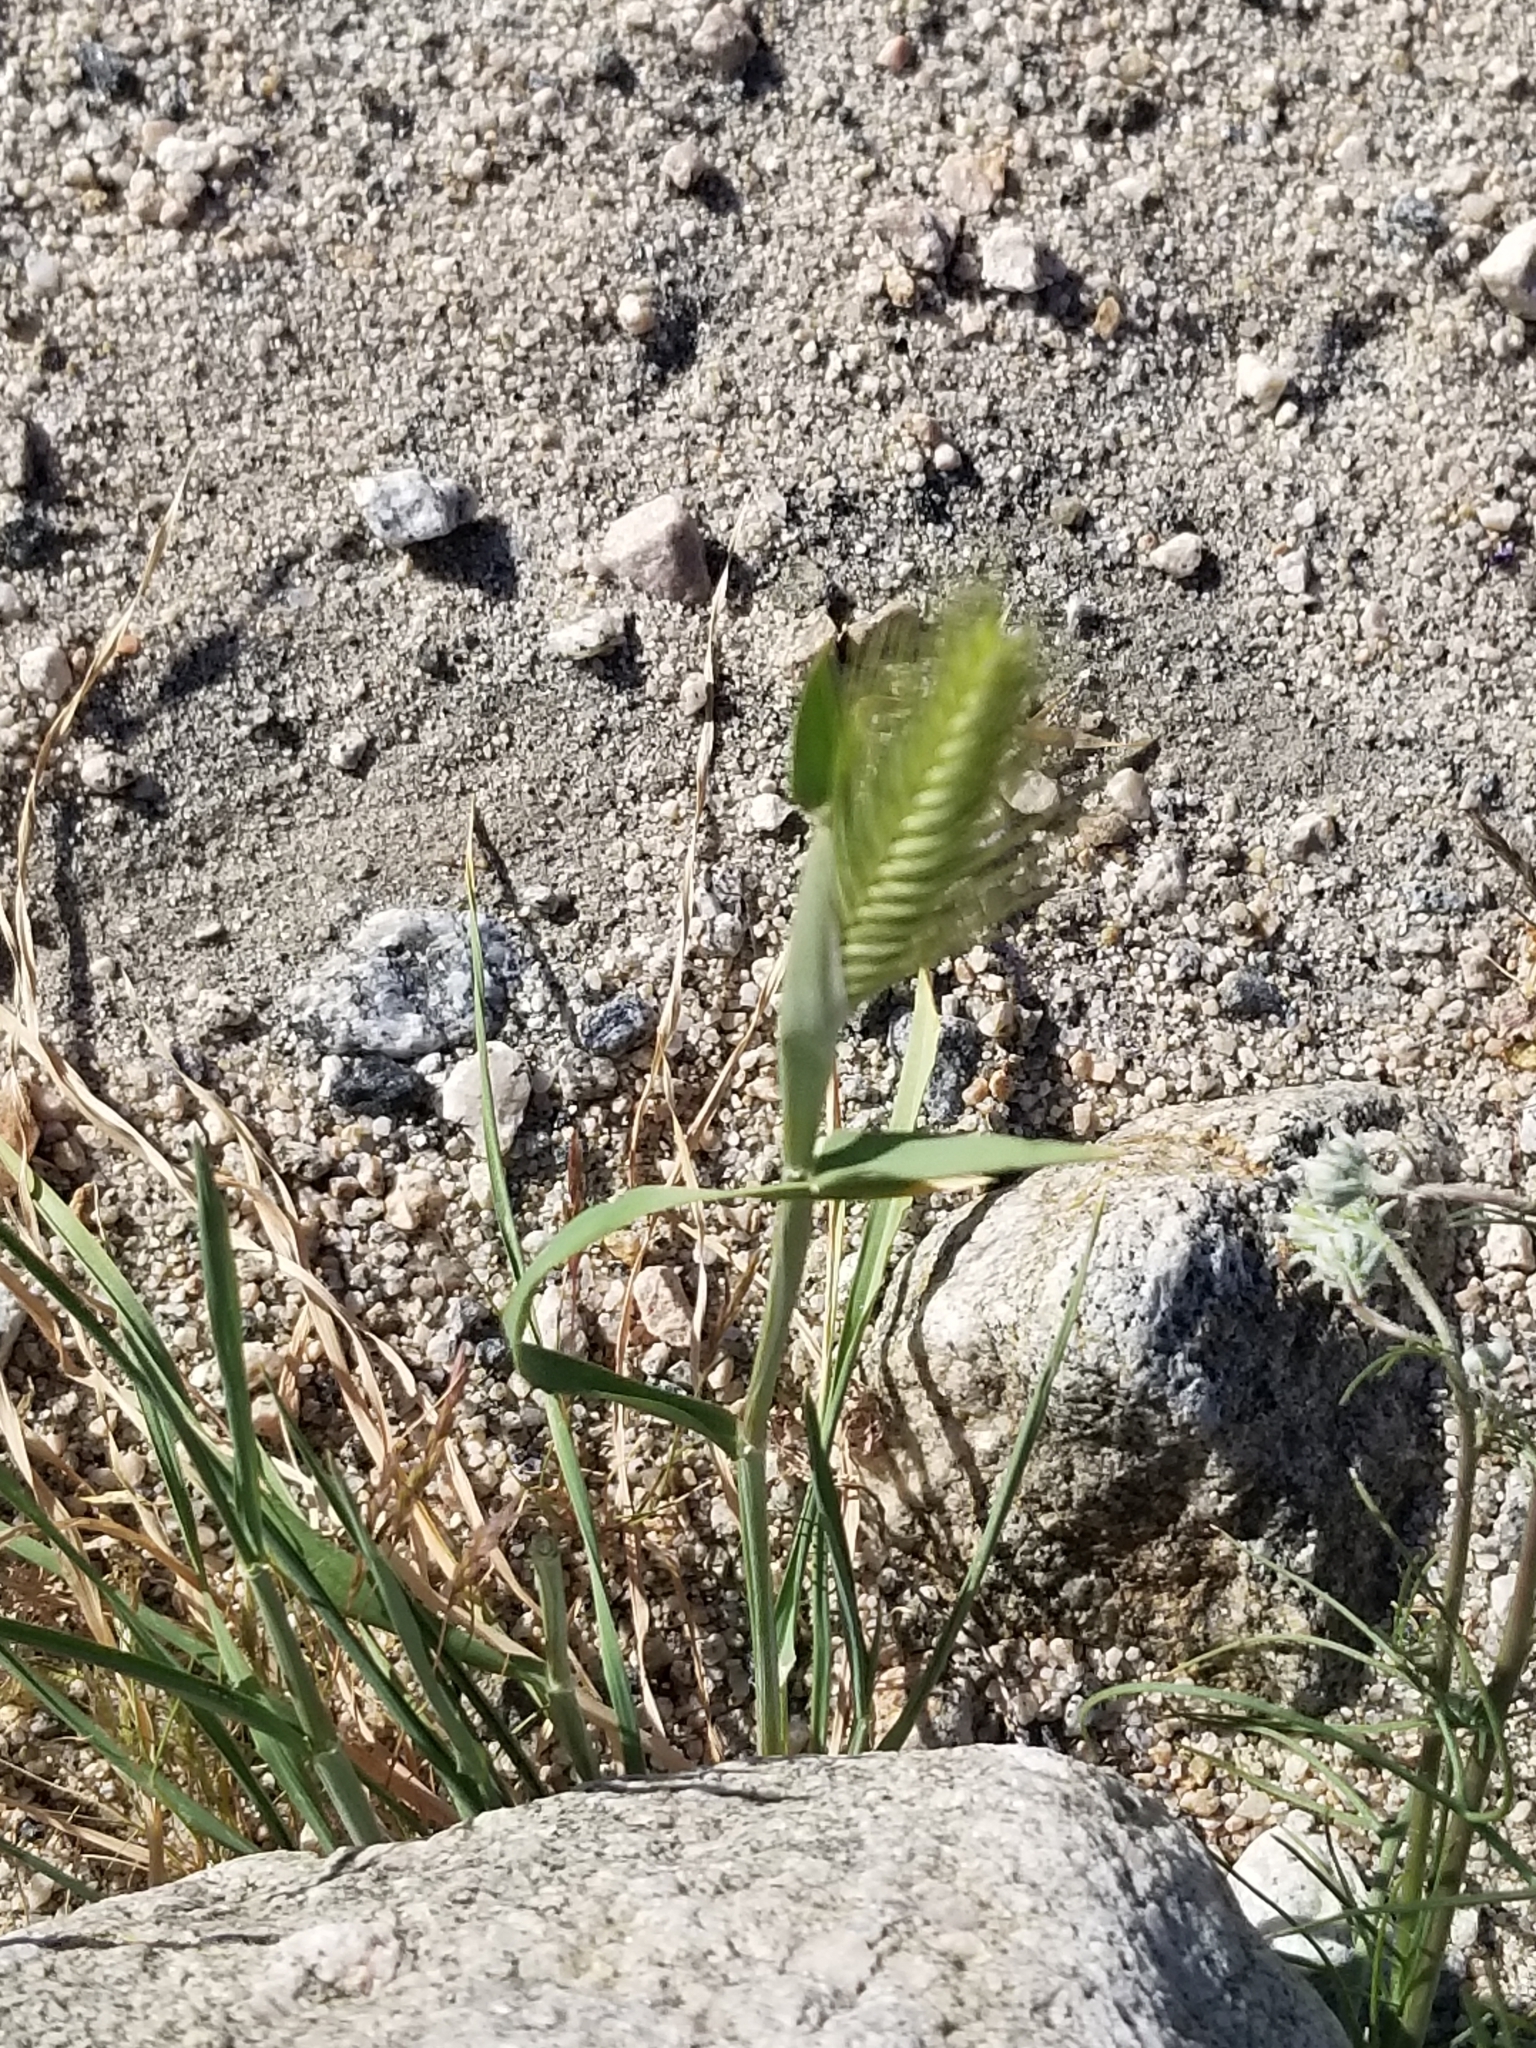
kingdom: Plantae
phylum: Tracheophyta
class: Liliopsida
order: Poales
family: Poaceae
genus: Hordeum
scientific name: Hordeum murinum
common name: Wall barley
